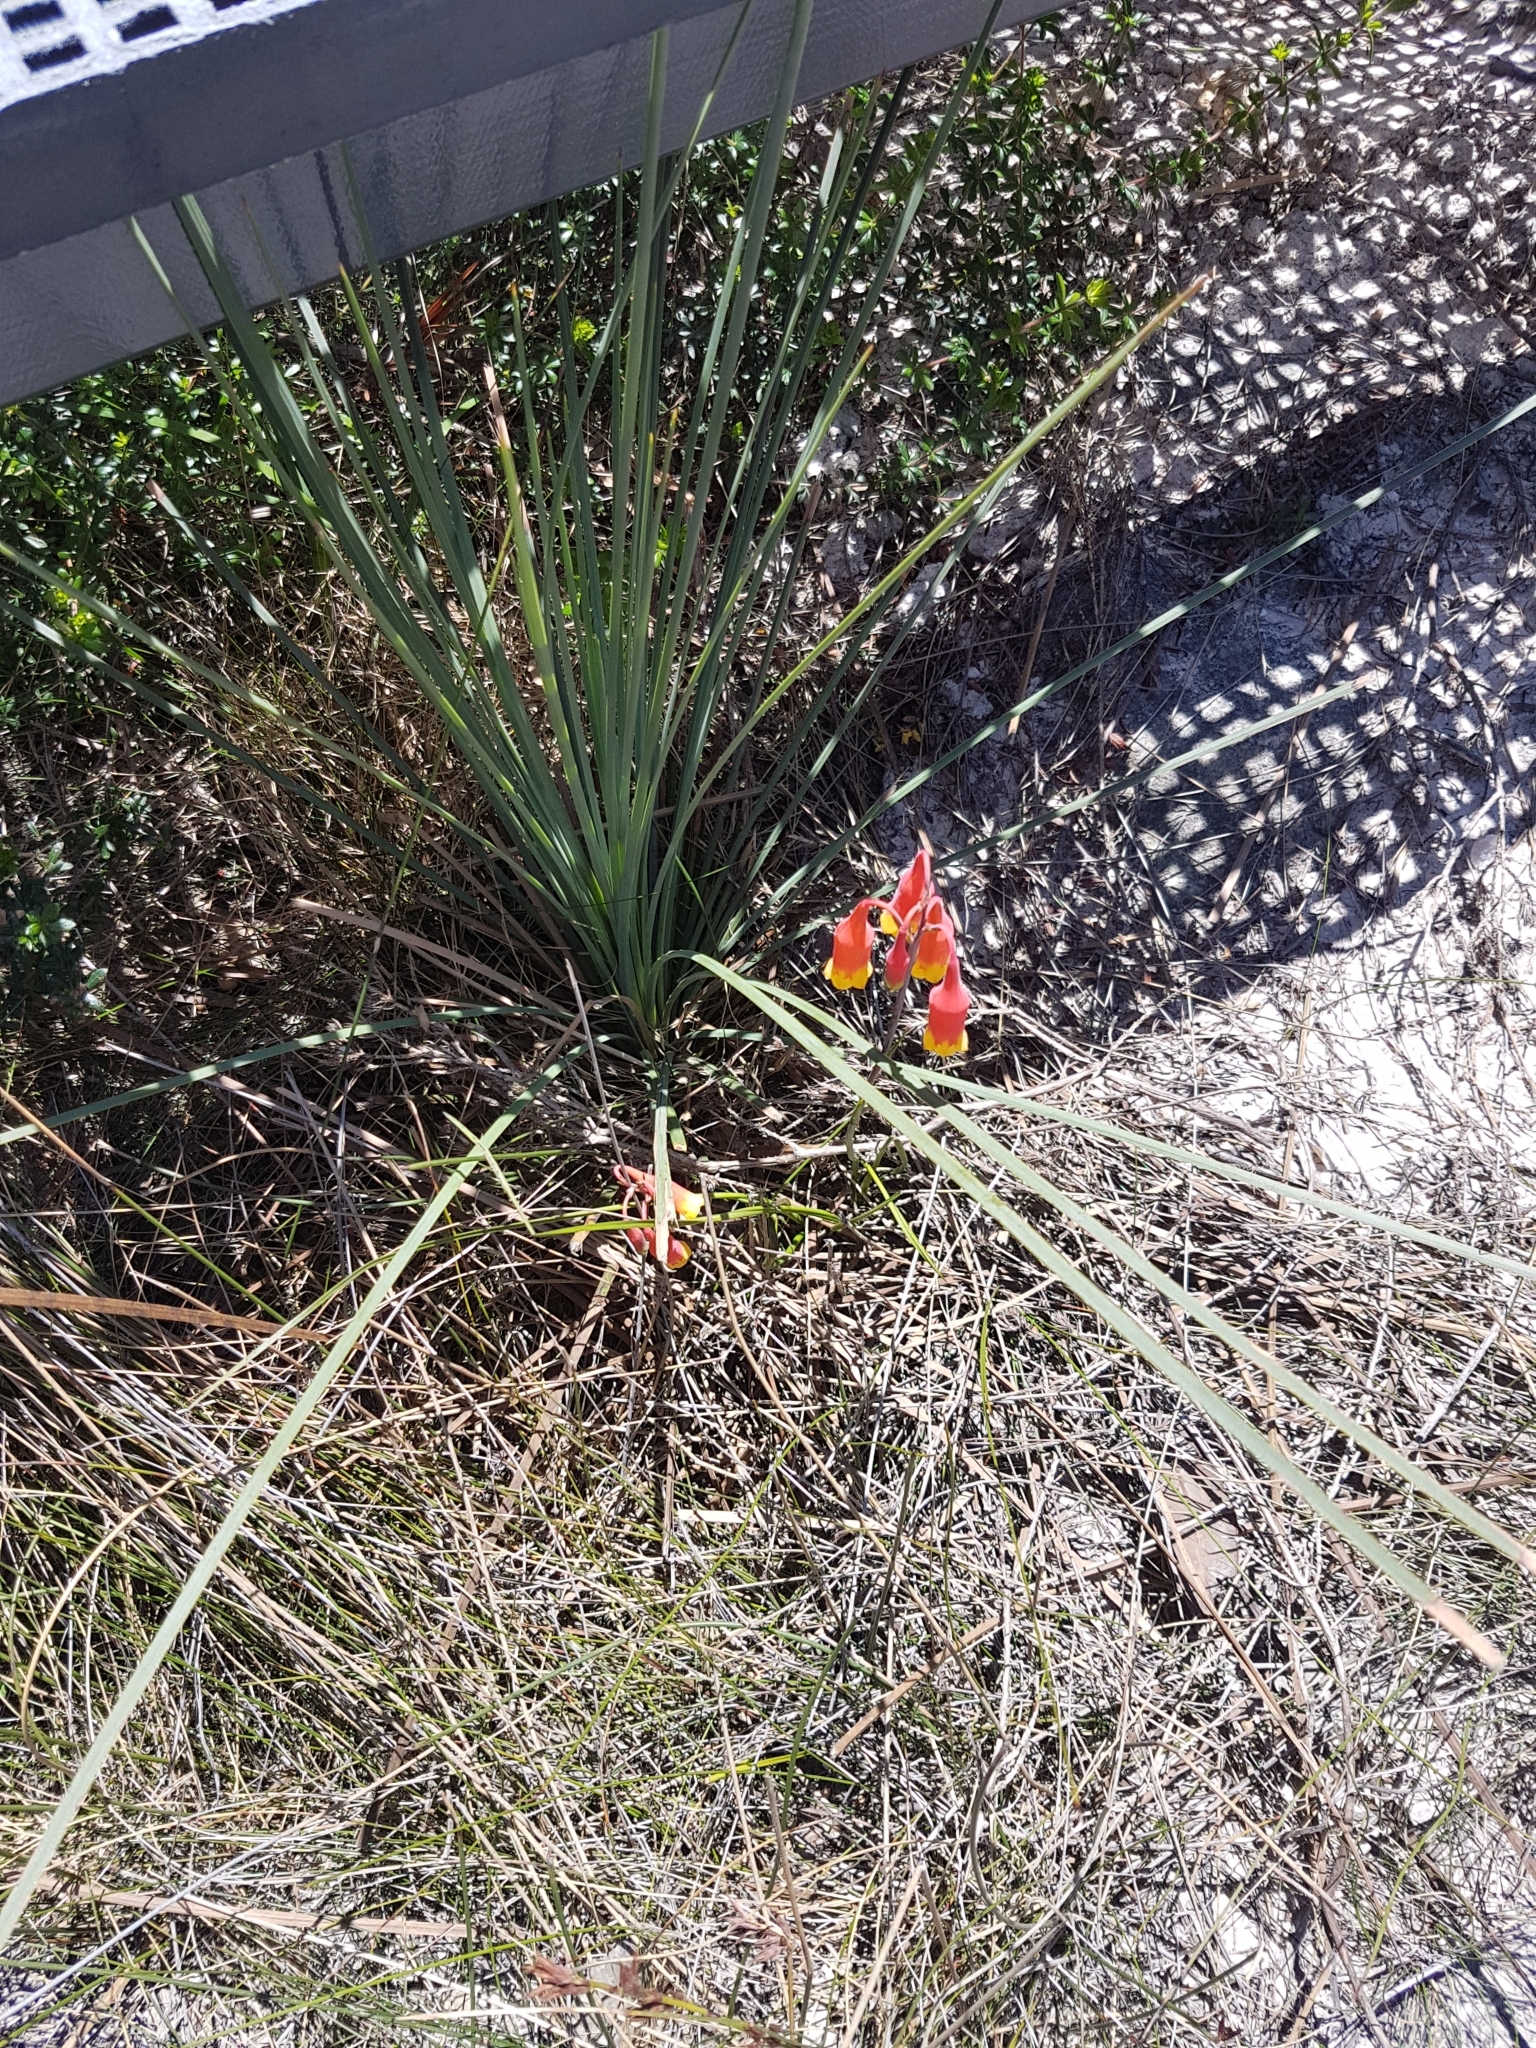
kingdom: Plantae
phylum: Tracheophyta
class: Liliopsida
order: Asparagales
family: Blandfordiaceae
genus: Blandfordia
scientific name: Blandfordia nobilis
